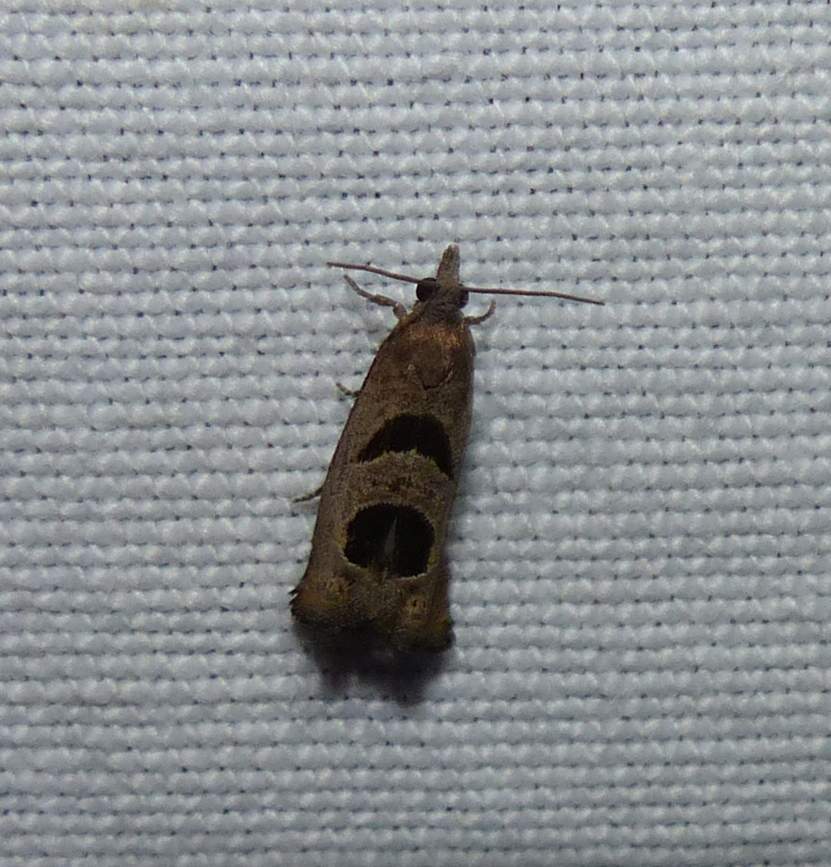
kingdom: Animalia
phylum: Arthropoda
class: Insecta
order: Lepidoptera
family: Tortricidae
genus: Eucosma
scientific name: Eucosma tomonana
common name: Aster-head eucosma moth
